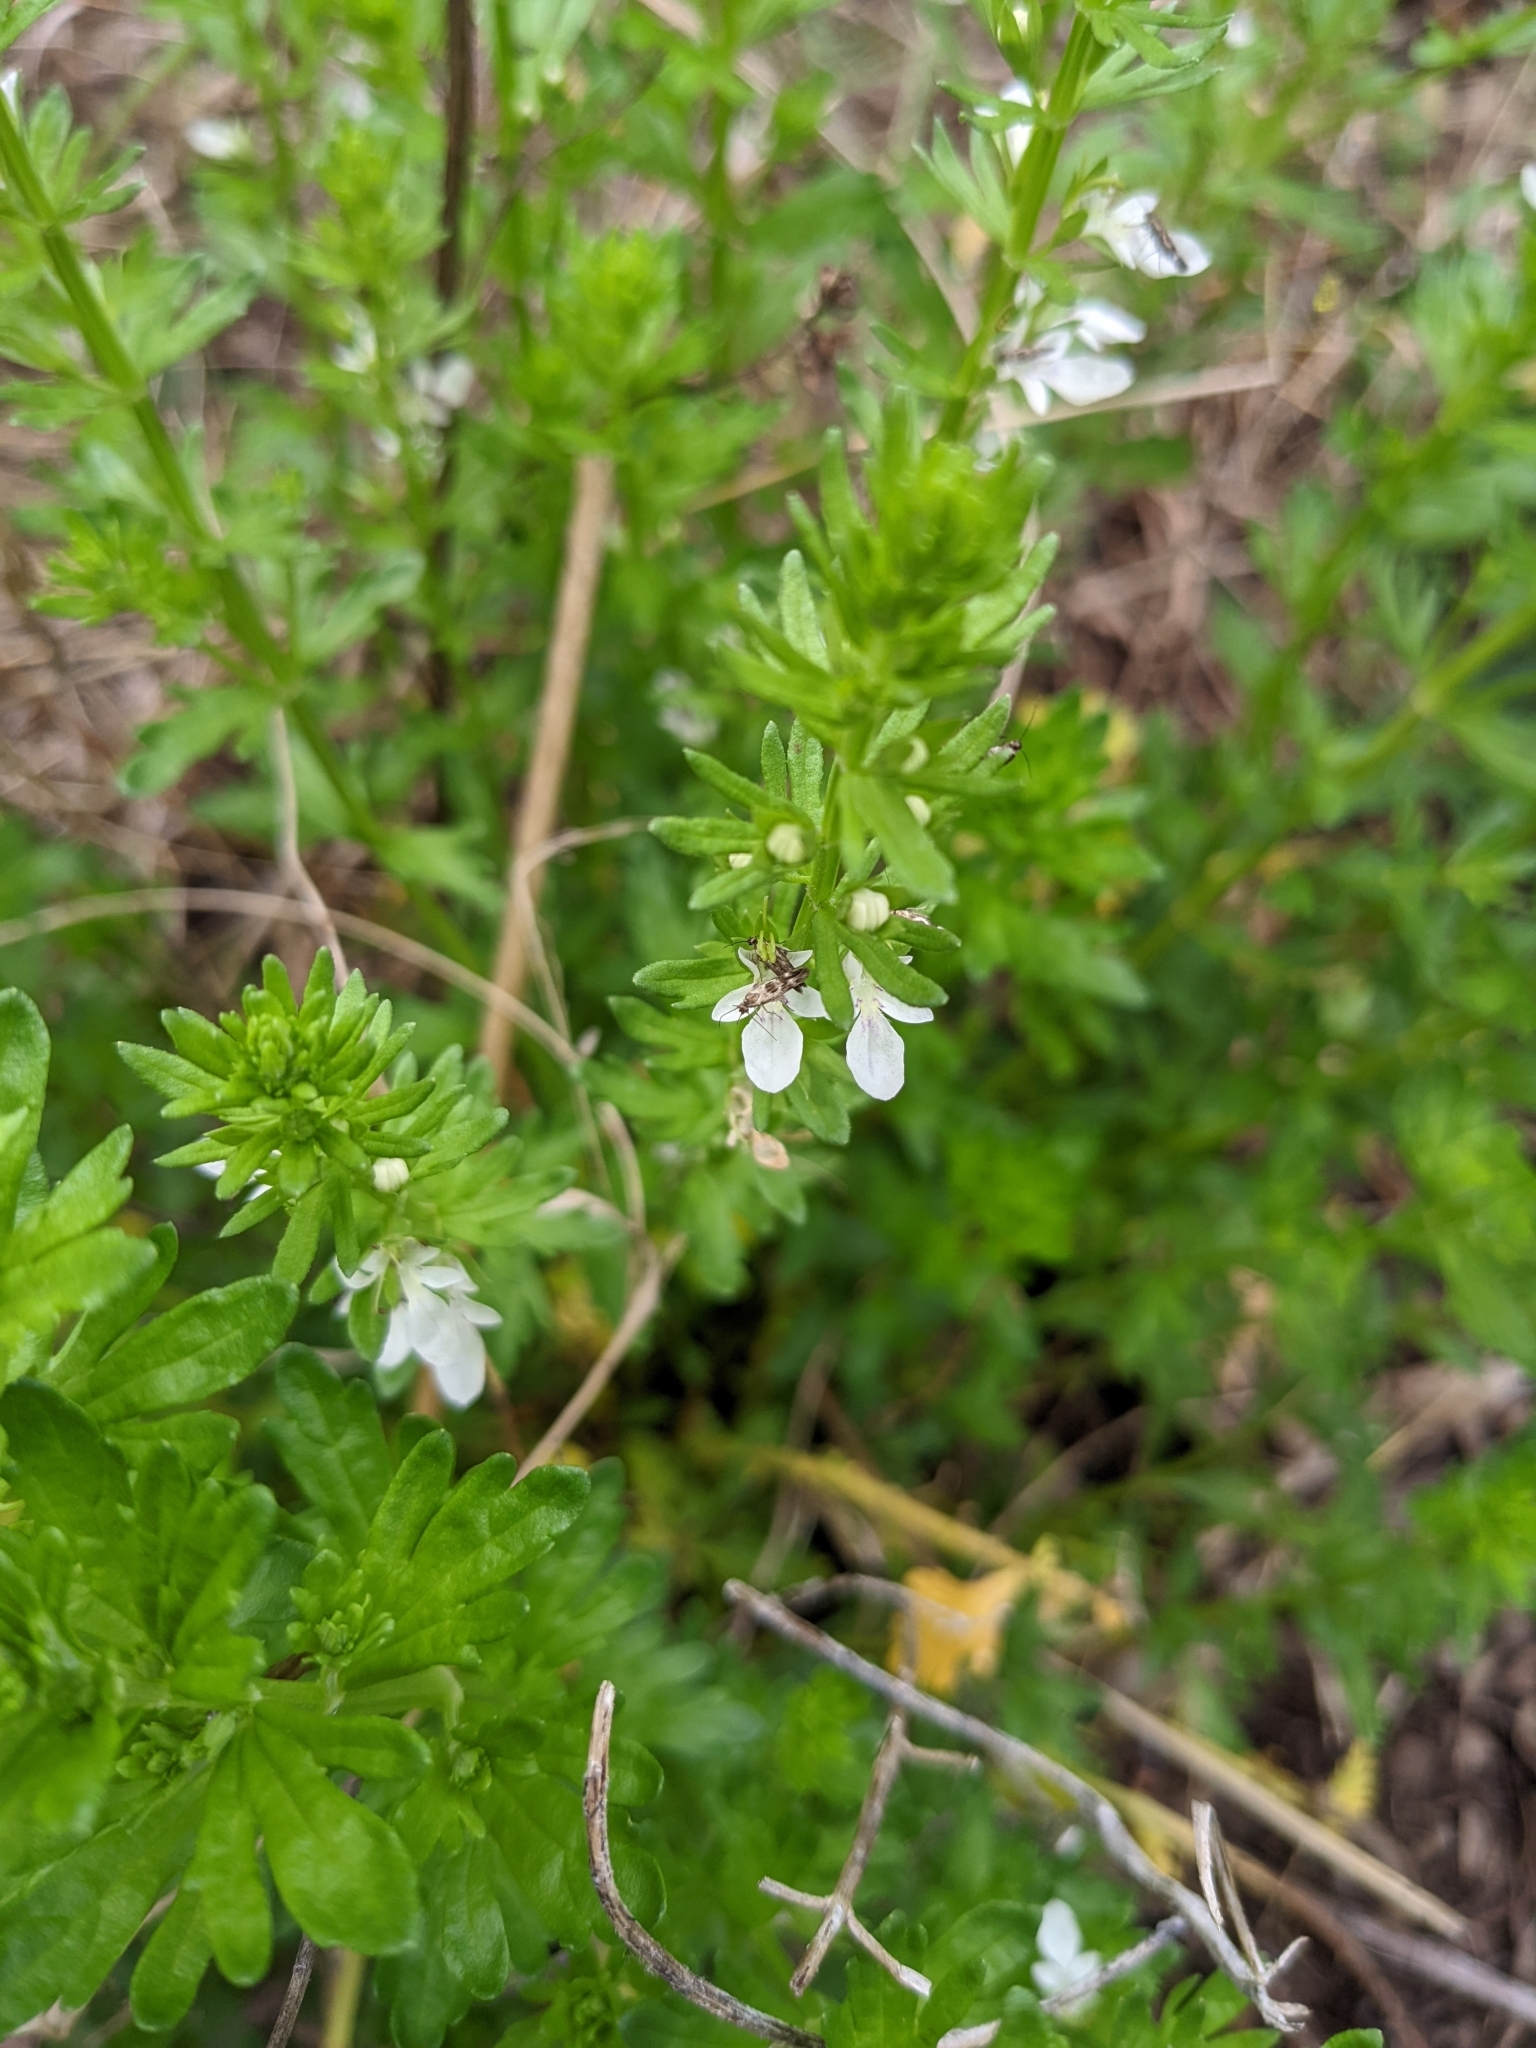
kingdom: Plantae
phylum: Tracheophyta
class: Magnoliopsida
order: Lamiales
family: Lamiaceae
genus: Teucrium
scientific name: Teucrium cubense
